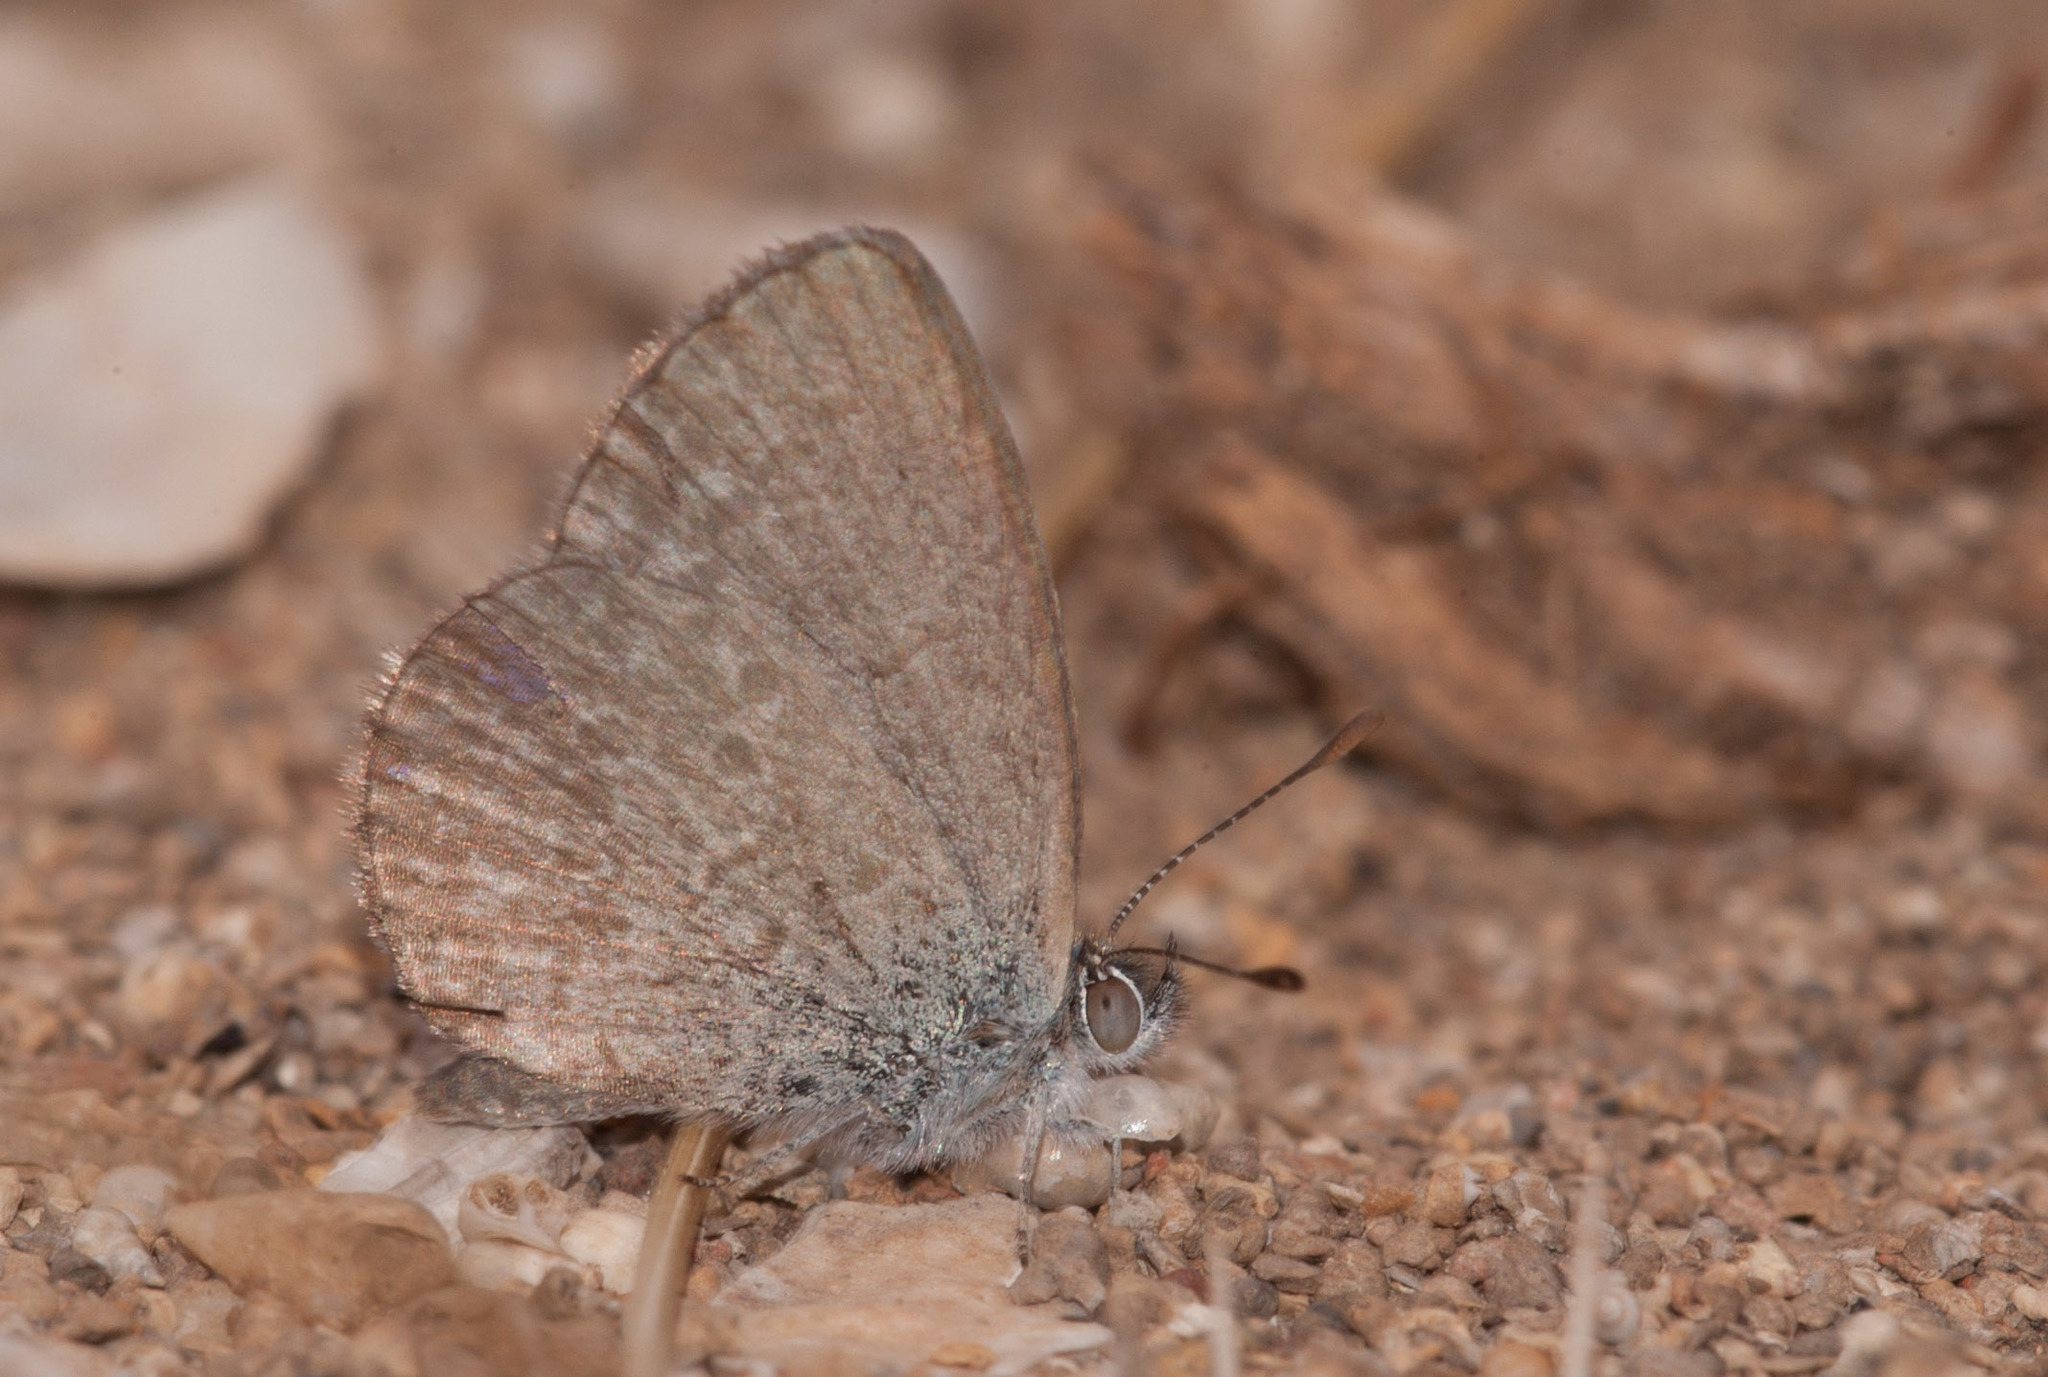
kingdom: Animalia
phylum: Arthropoda
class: Insecta
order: Lepidoptera
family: Lycaenidae
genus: Zizina
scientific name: Zizina labradus
